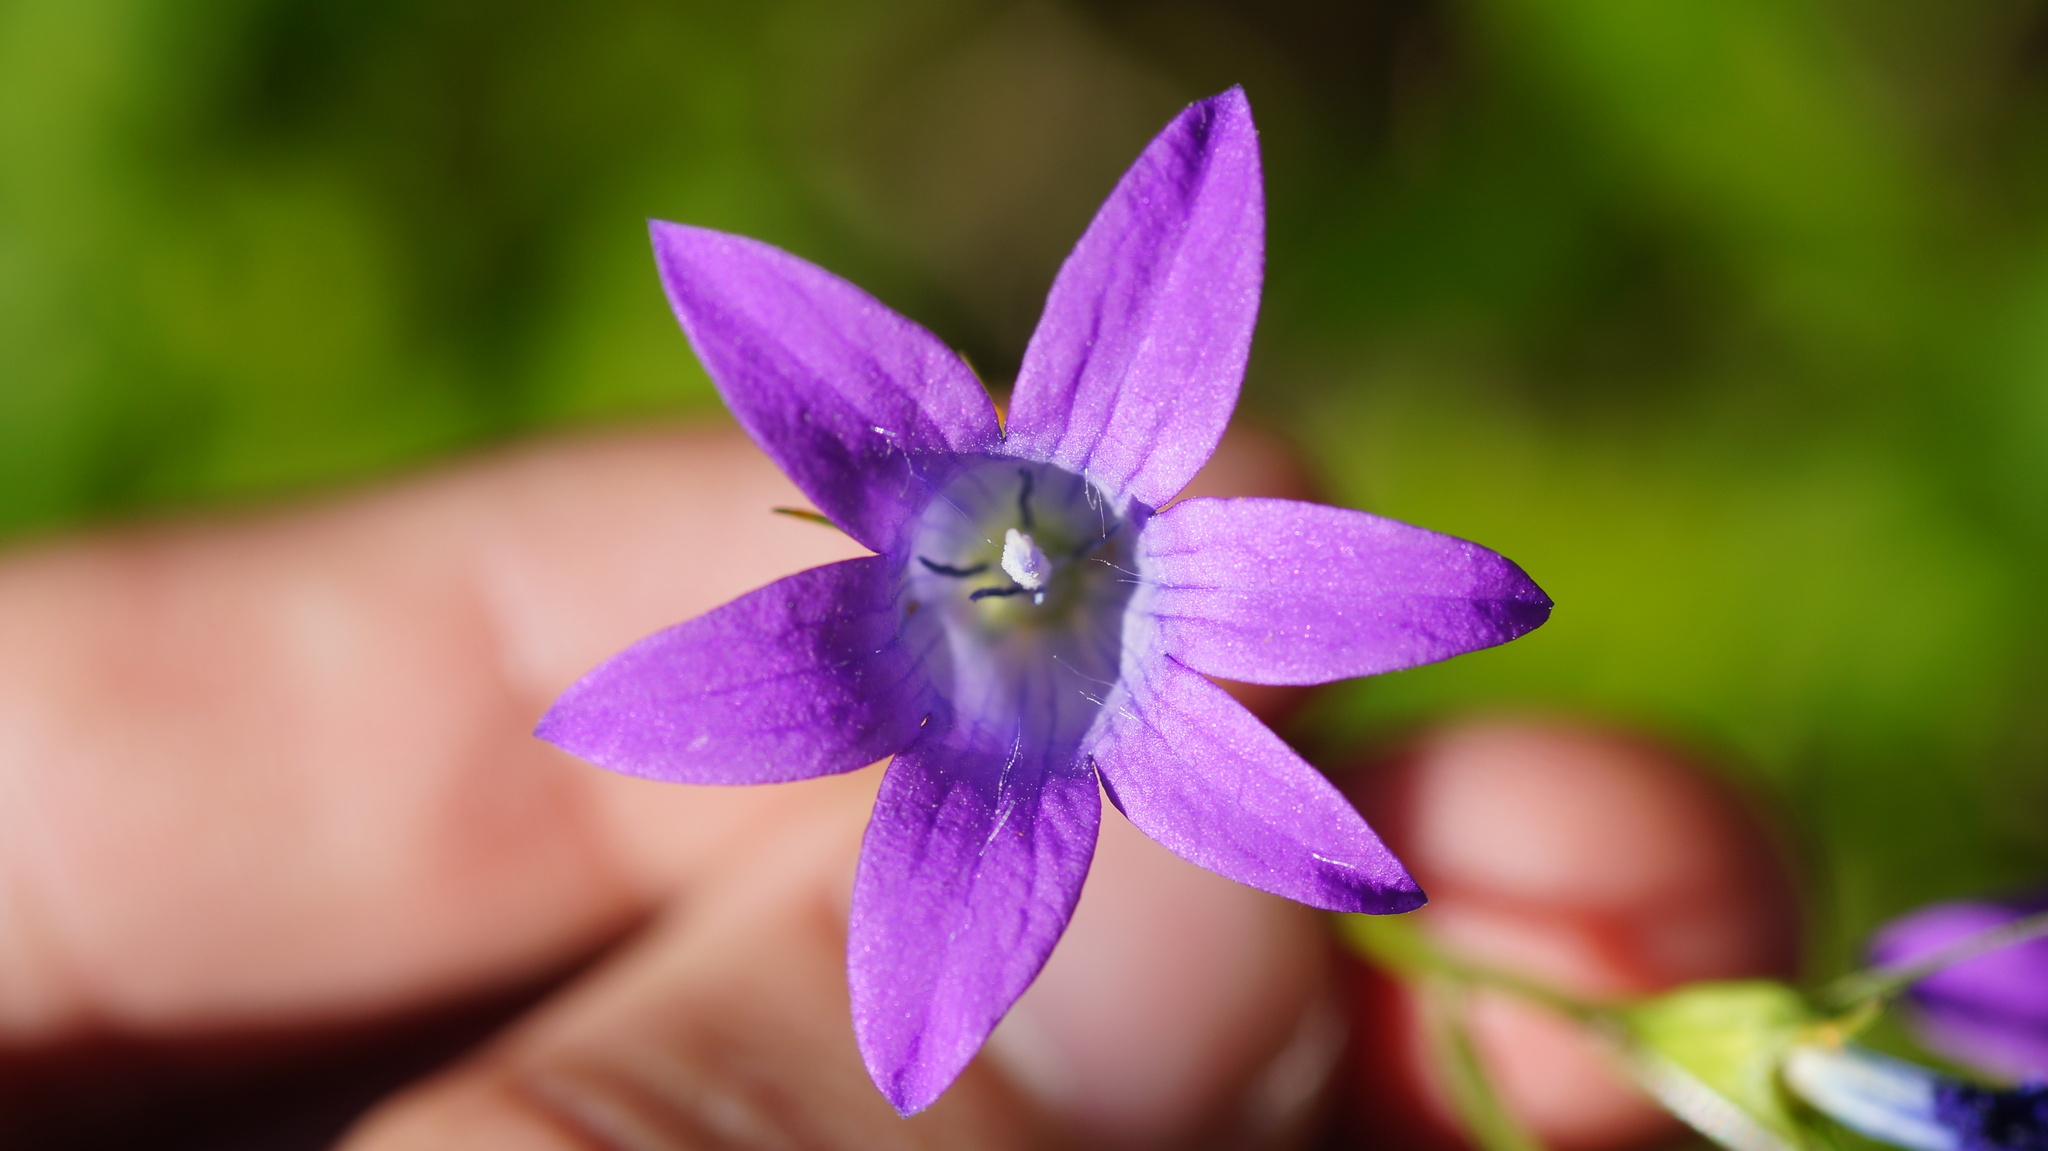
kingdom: Plantae
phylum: Tracheophyta
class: Magnoliopsida
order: Asterales
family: Campanulaceae
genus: Campanula
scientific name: Campanula patula
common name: Spreading bellflower
